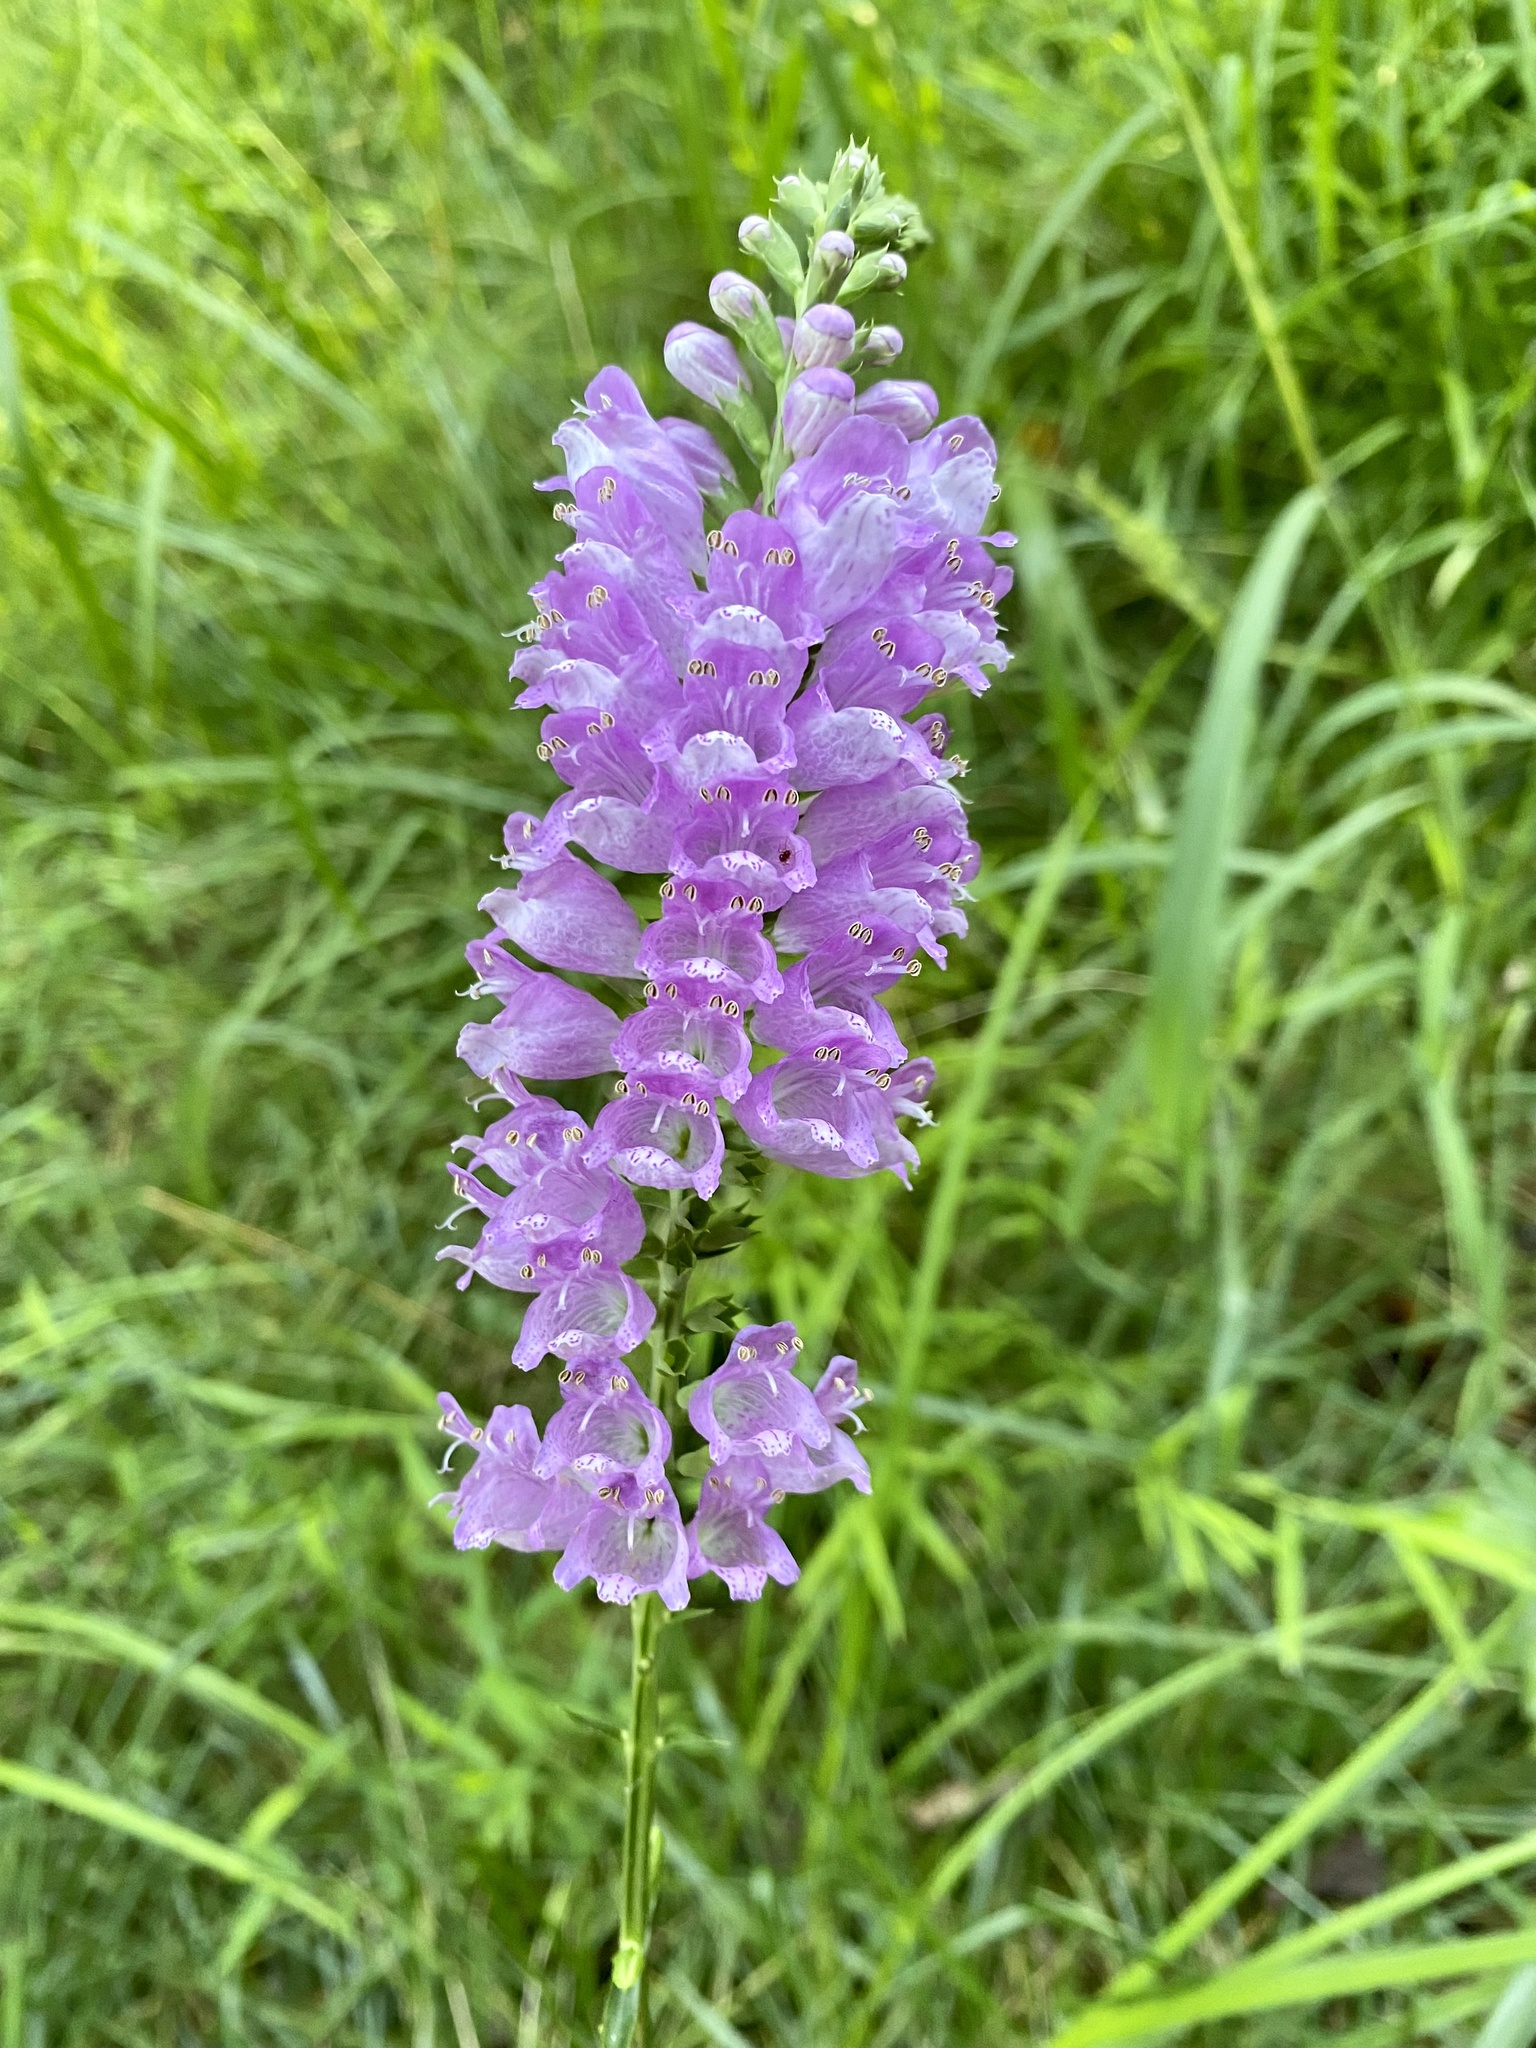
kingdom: Plantae
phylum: Tracheophyta
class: Magnoliopsida
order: Lamiales
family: Lamiaceae
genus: Physostegia
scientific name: Physostegia virginiana
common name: Obedient-plant
